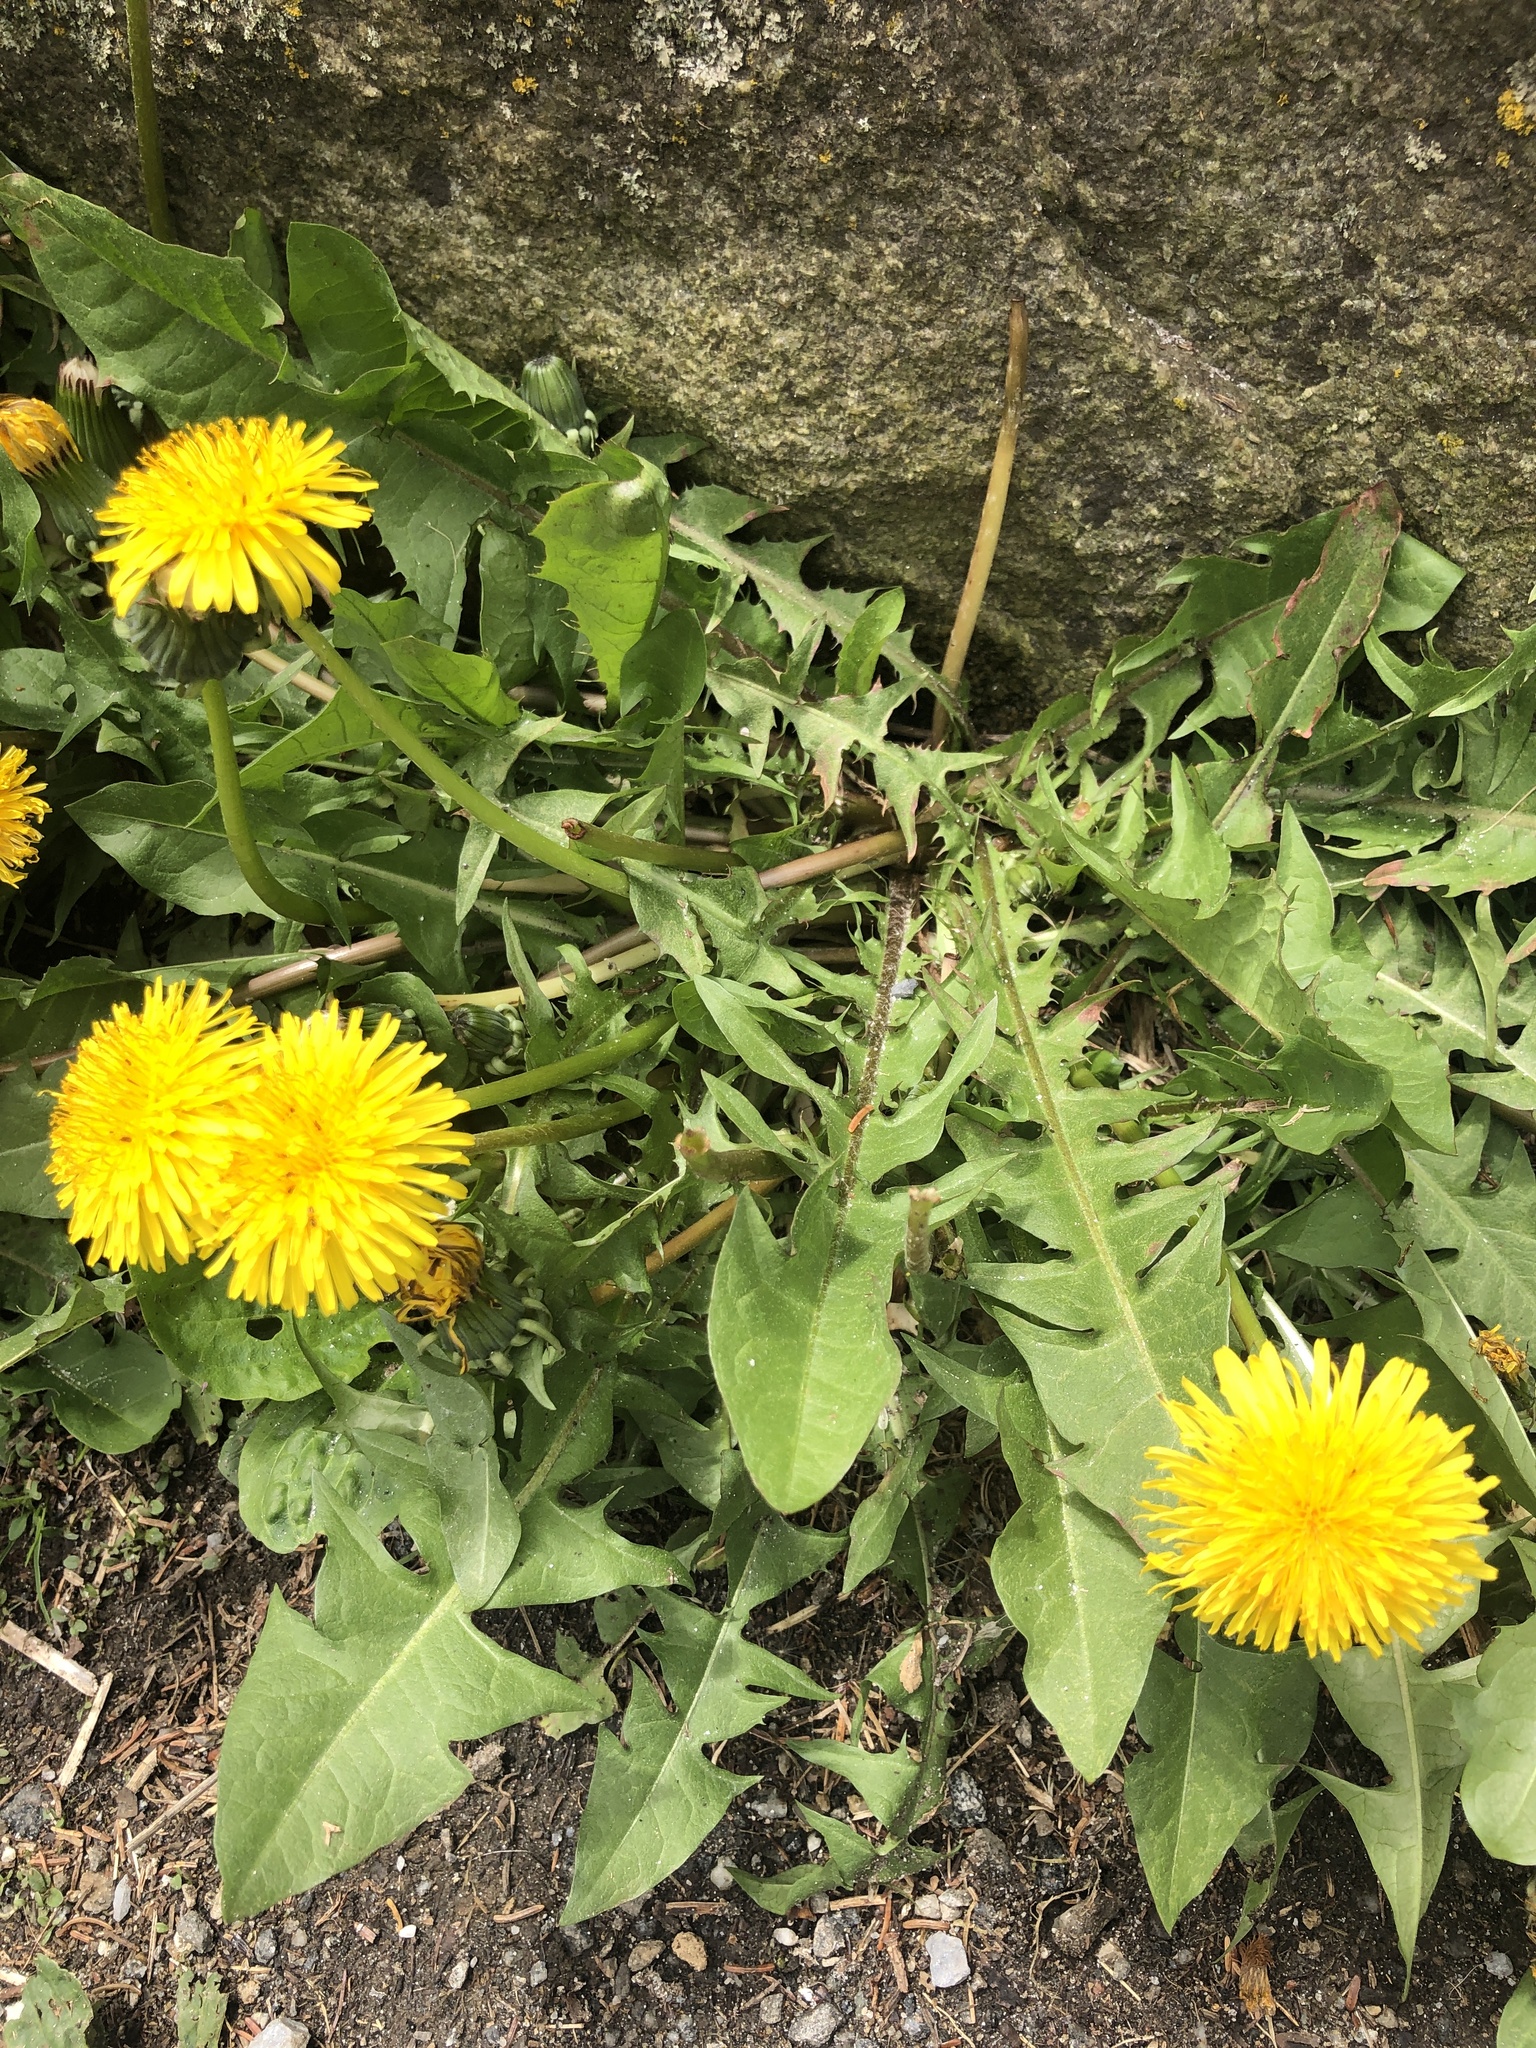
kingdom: Plantae
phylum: Tracheophyta
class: Magnoliopsida
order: Asterales
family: Asteraceae
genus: Taraxacum
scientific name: Taraxacum officinale
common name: Common dandelion
